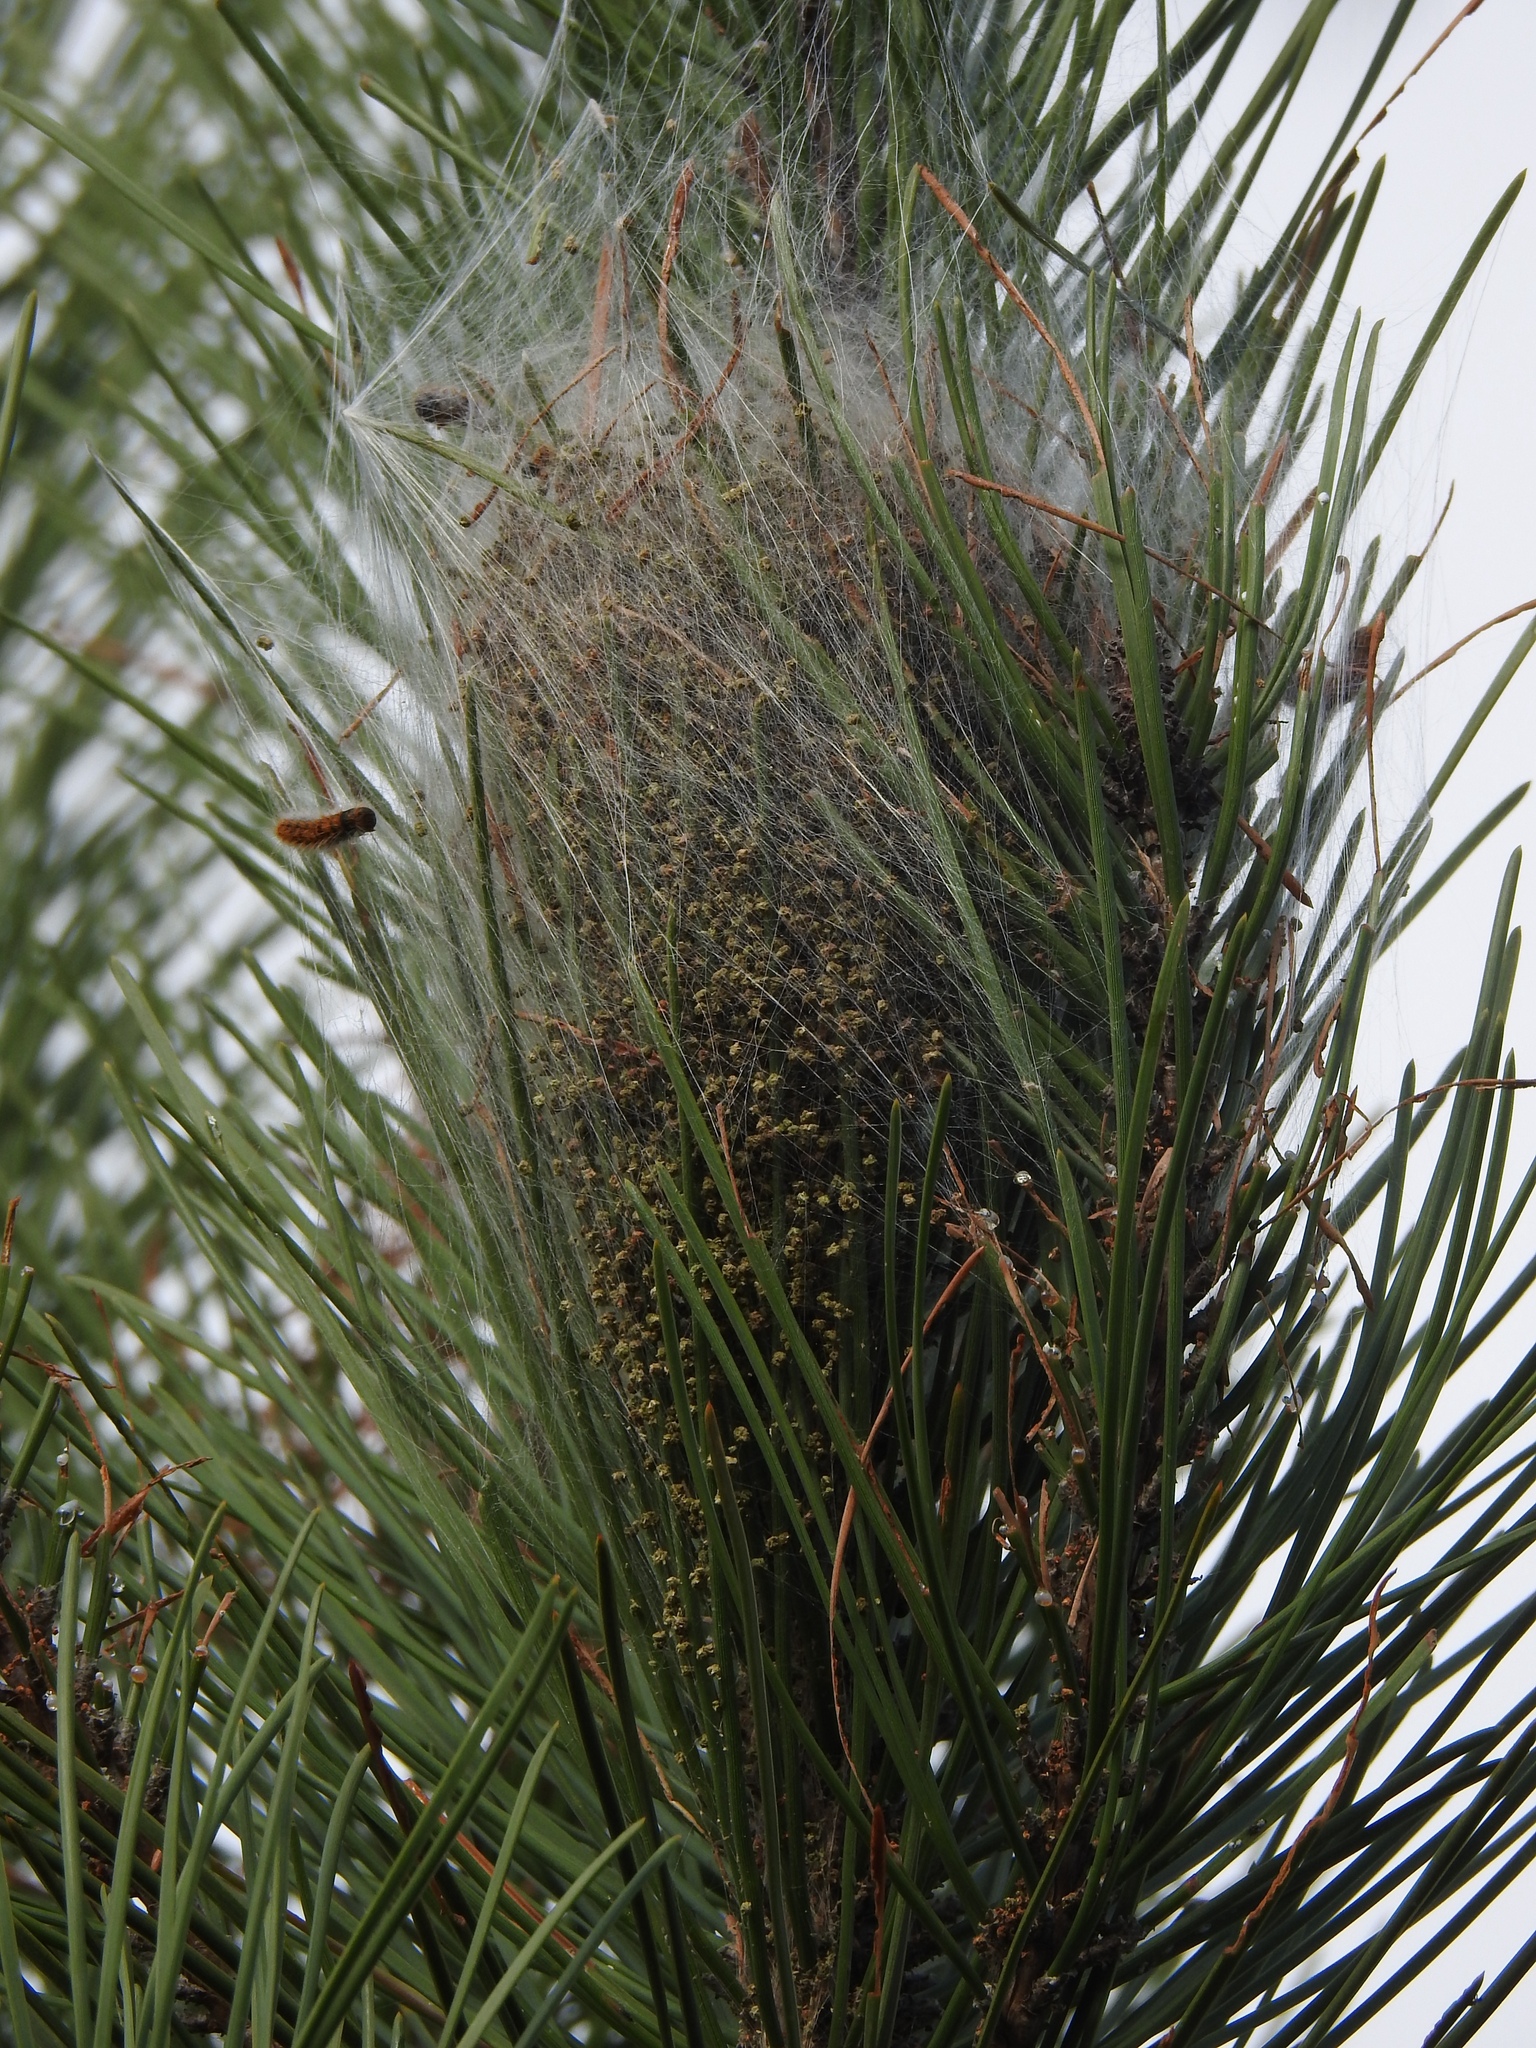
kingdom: Animalia
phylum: Arthropoda
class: Insecta
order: Lepidoptera
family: Notodontidae
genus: Thaumetopoea
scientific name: Thaumetopoea pityocampa
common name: Pine processionary
